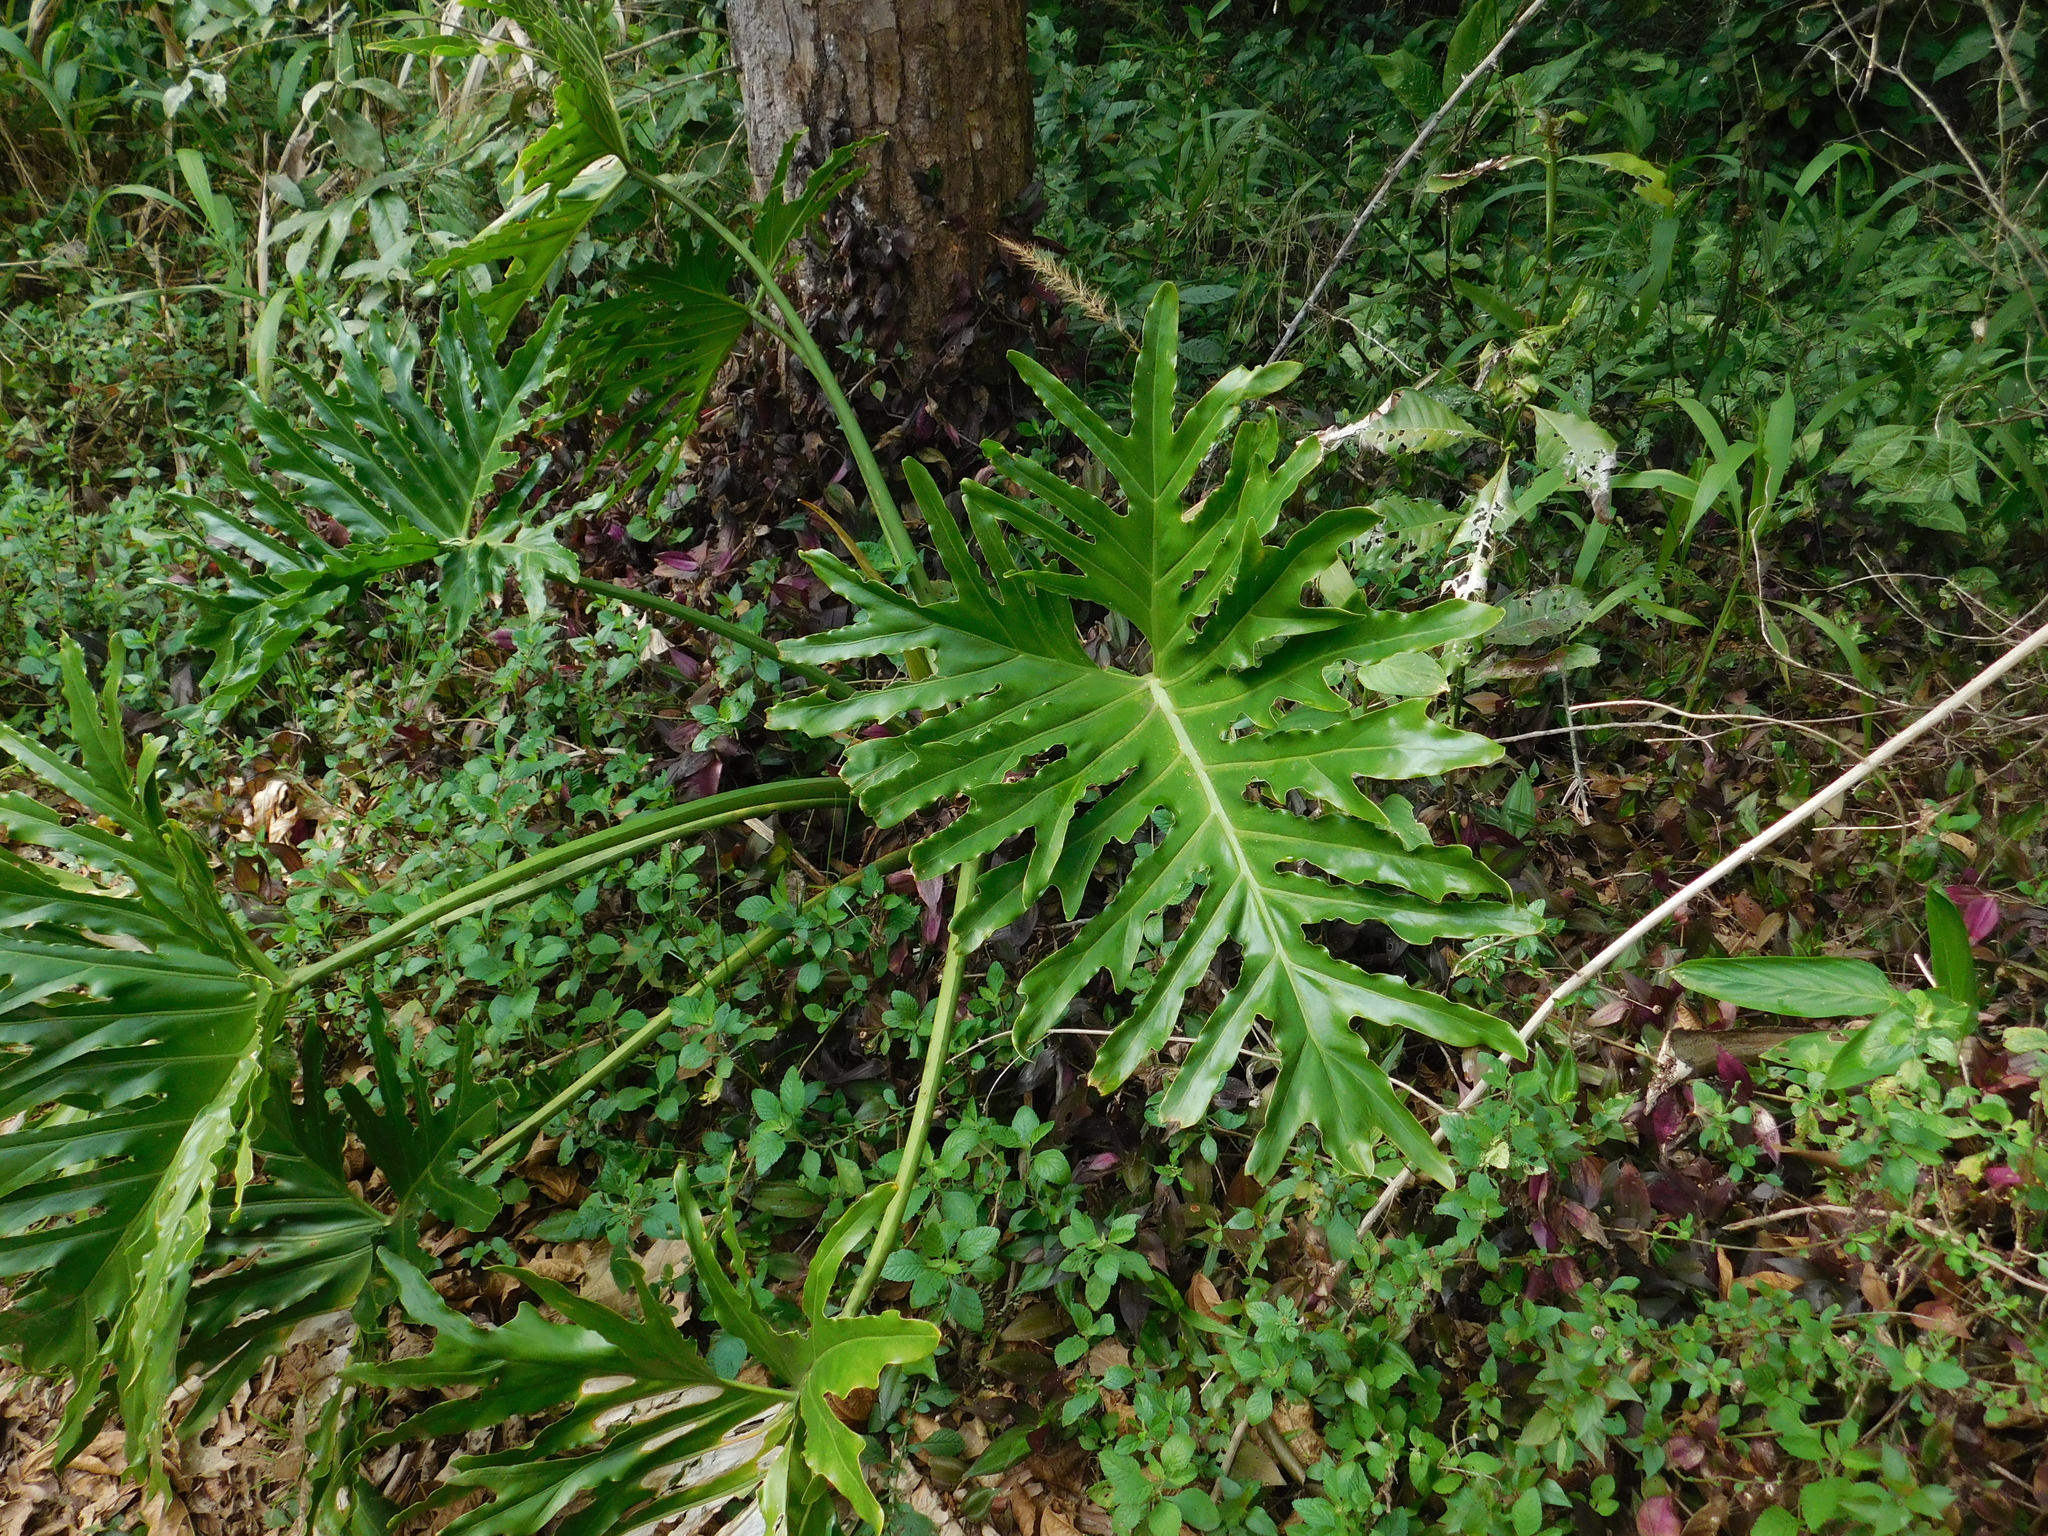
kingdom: Plantae
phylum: Tracheophyta
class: Liliopsida
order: Alismatales
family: Araceae
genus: Thaumatophyllum
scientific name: Thaumatophyllum bipinnatifidum
